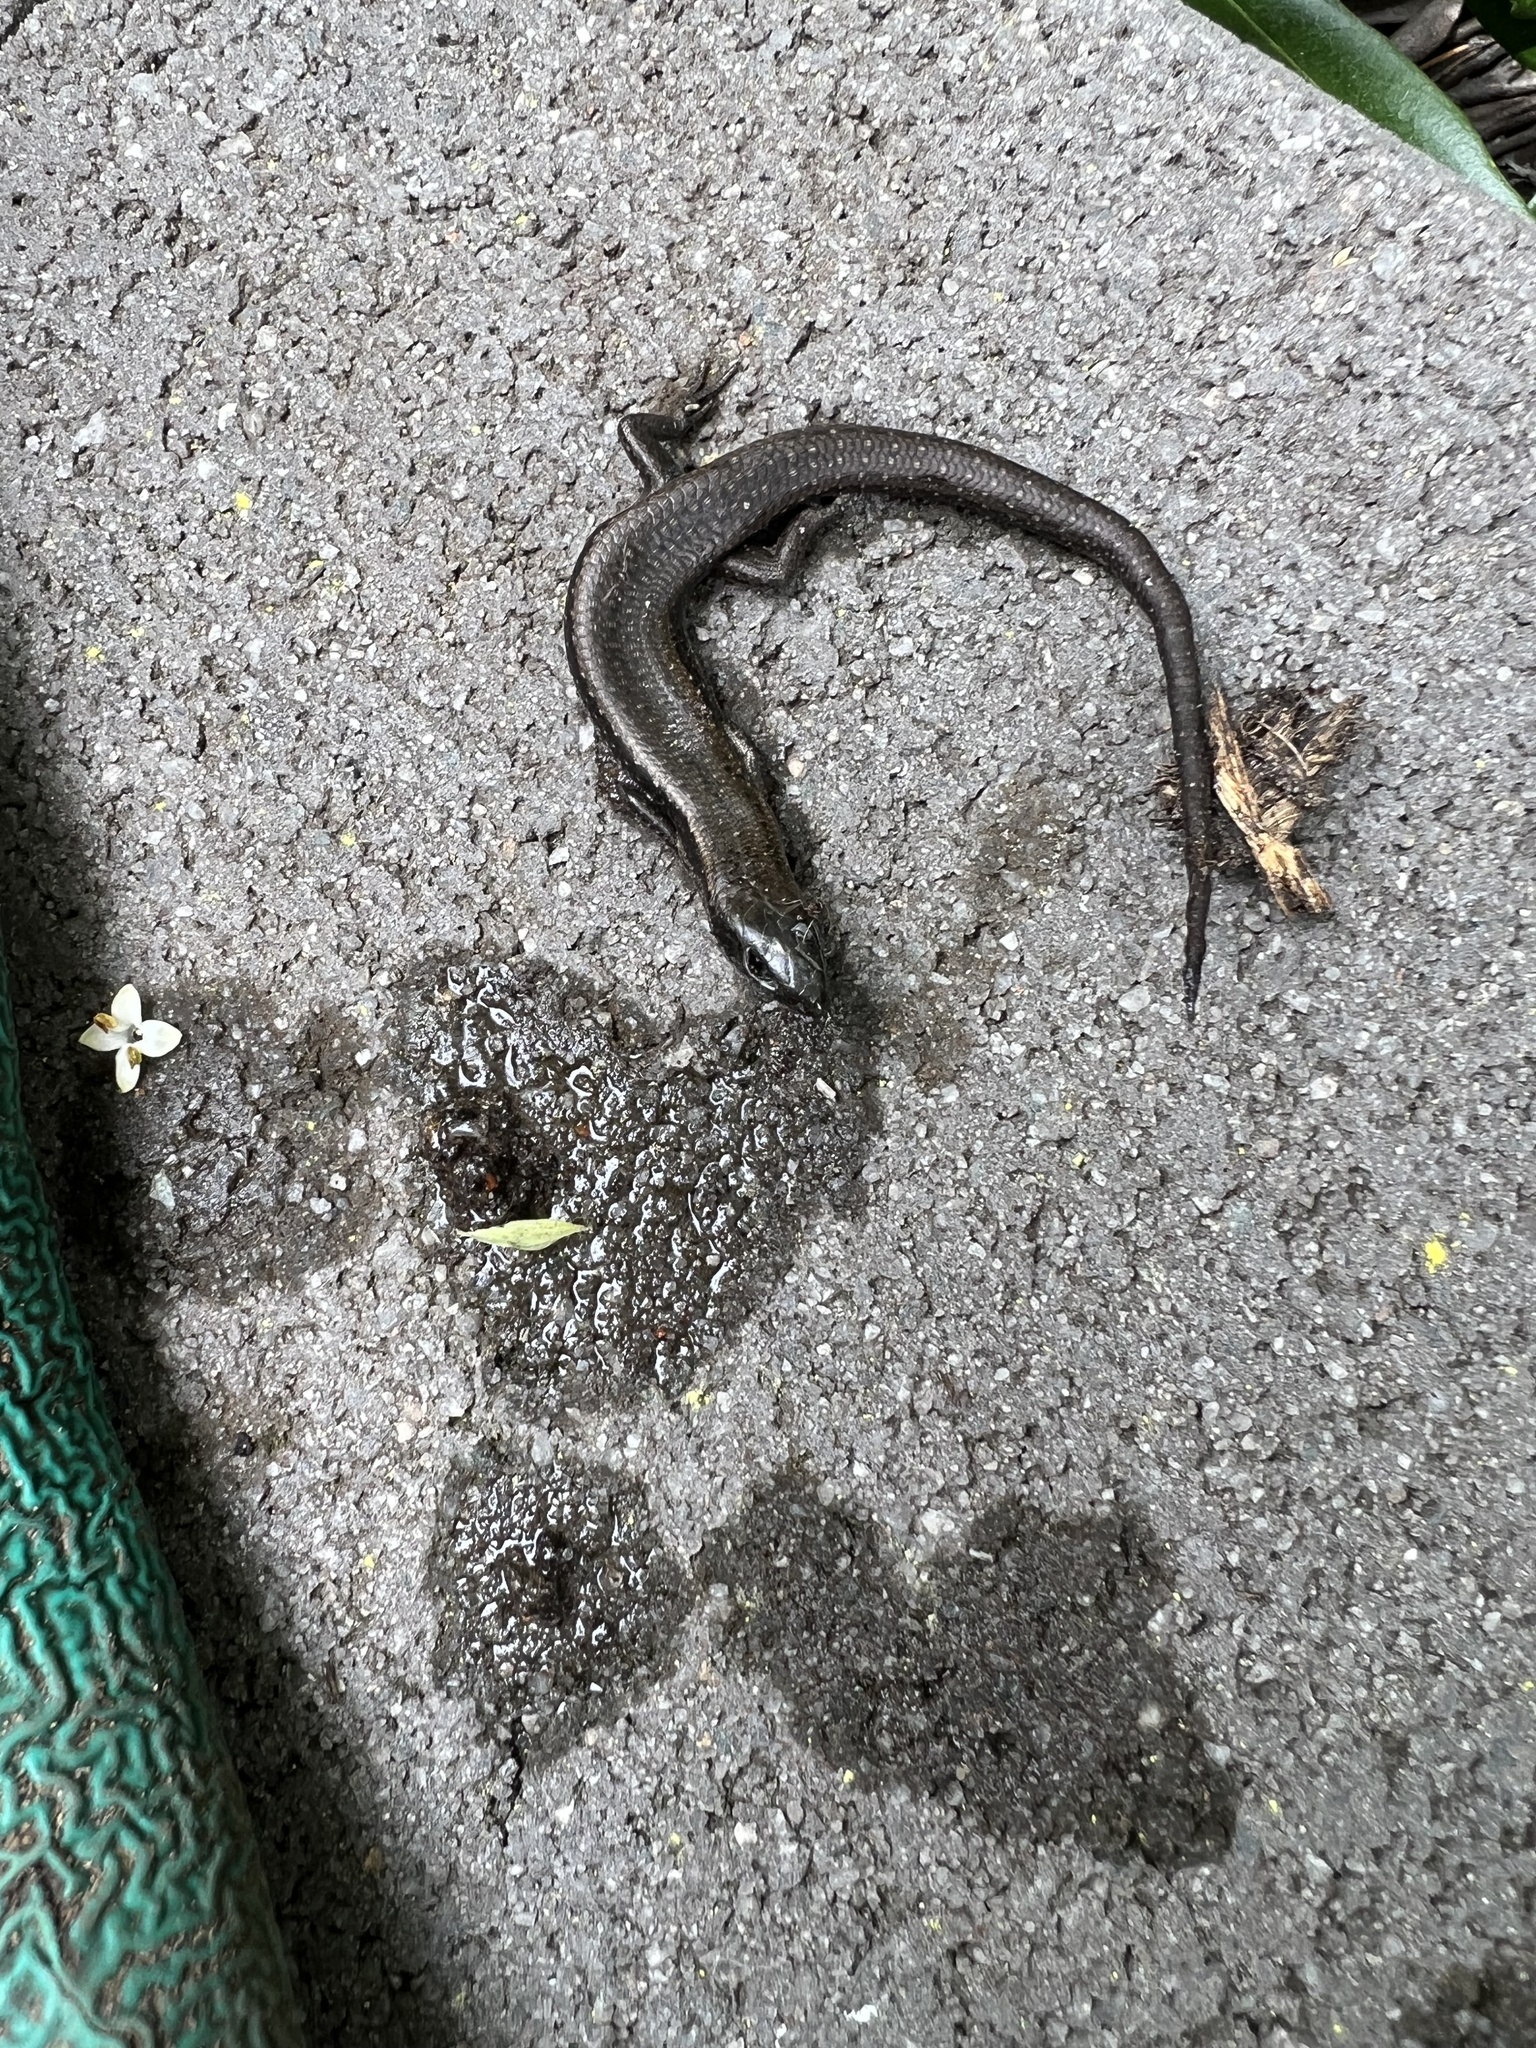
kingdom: Animalia
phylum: Chordata
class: Squamata
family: Scincidae
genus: Carinascincus
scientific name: Carinascincus metallicus
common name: Metallic cool-skink
